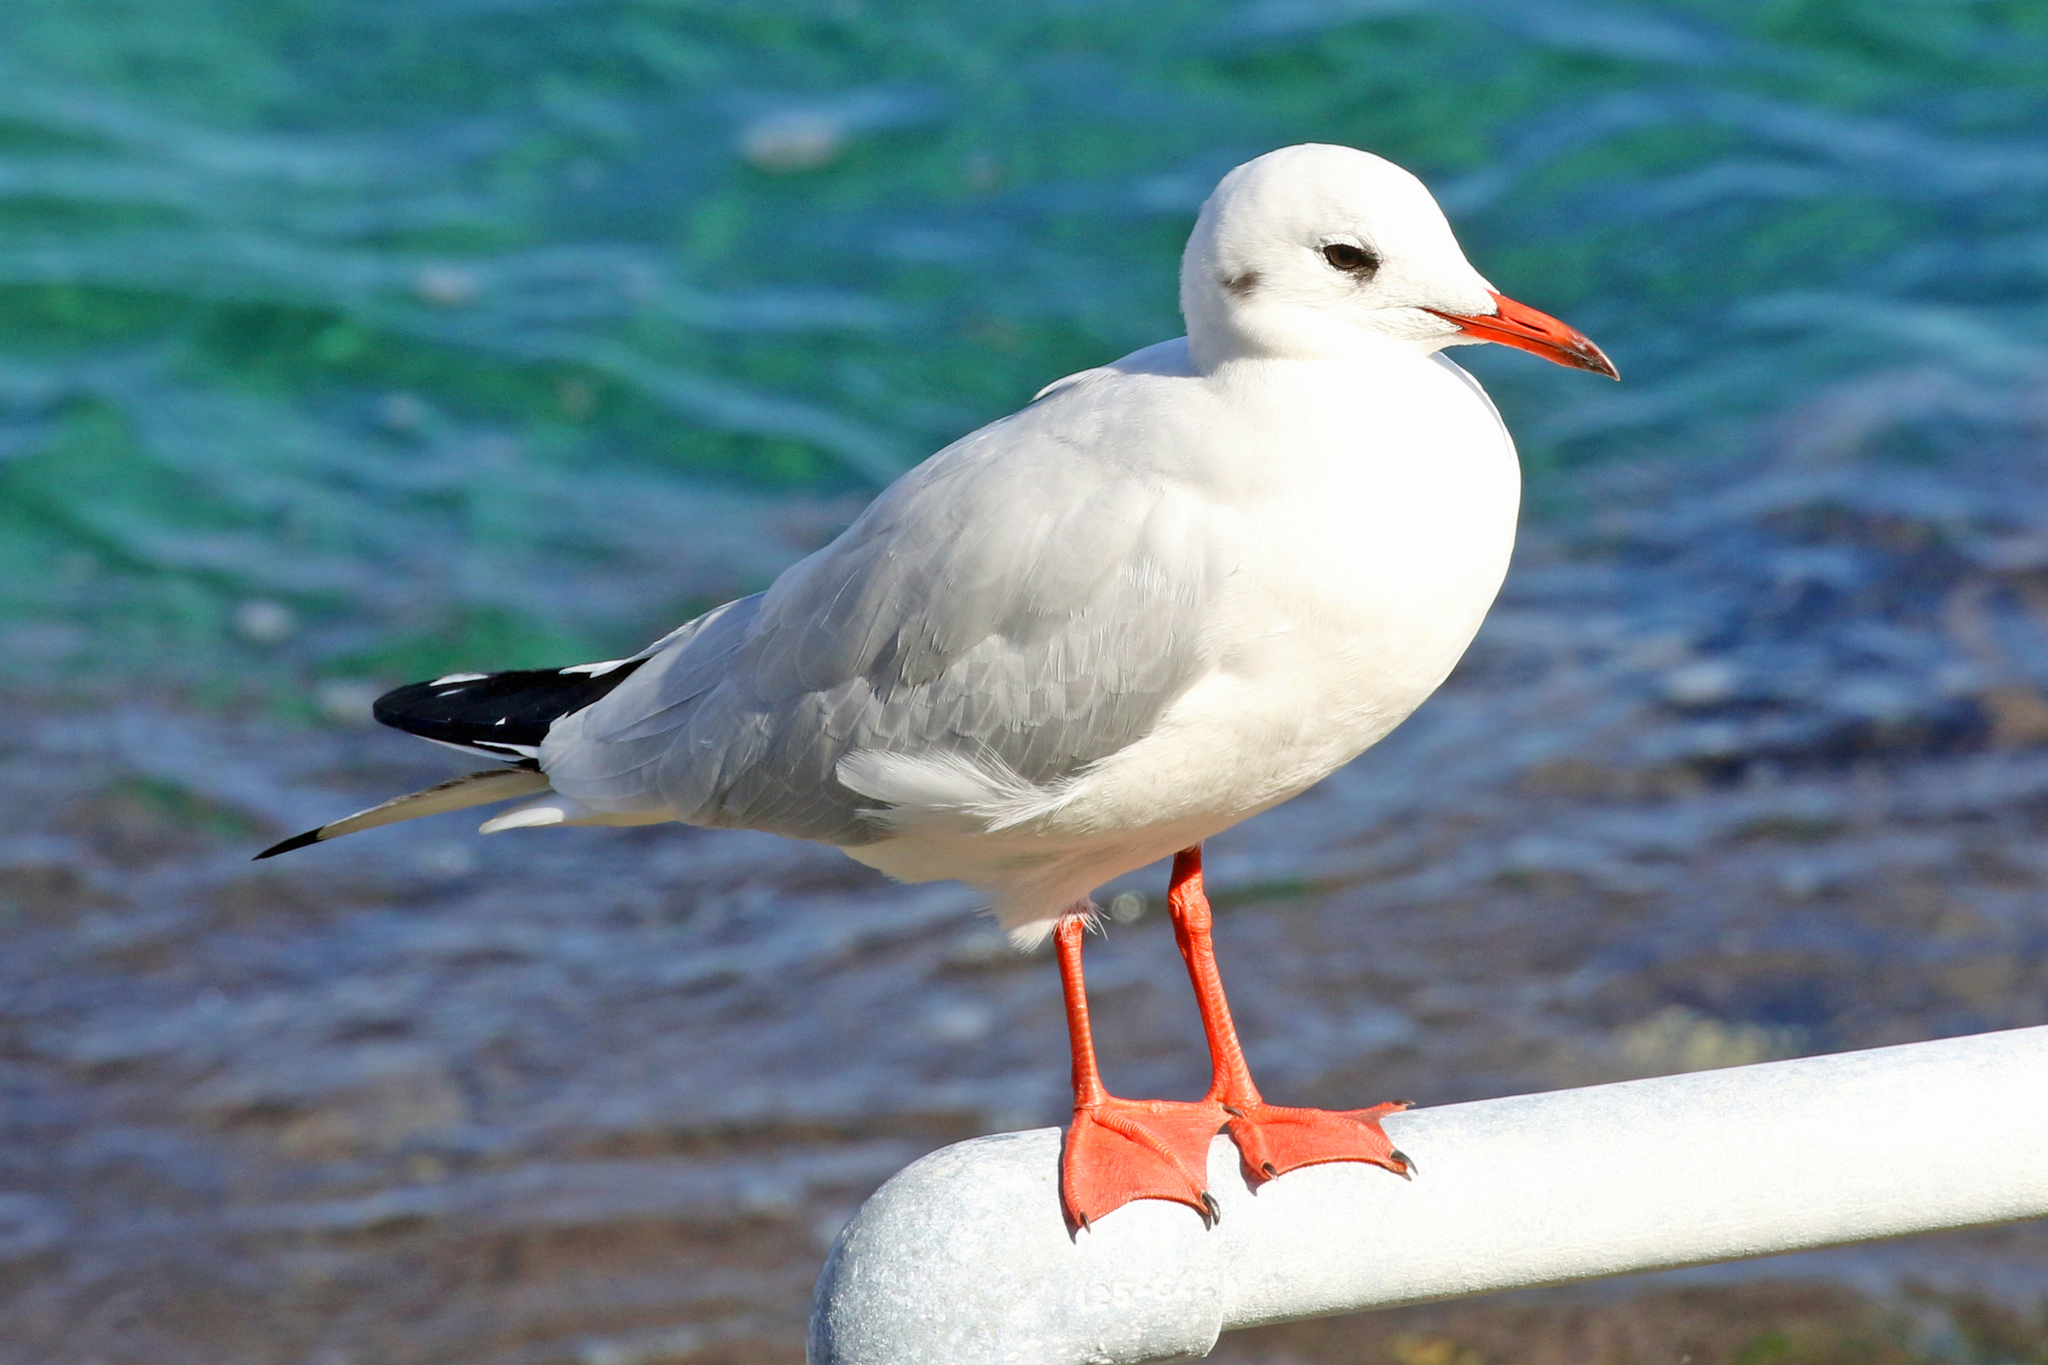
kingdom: Animalia
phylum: Chordata
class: Aves
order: Charadriiformes
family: Laridae
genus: Chroicocephalus
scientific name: Chroicocephalus ridibundus
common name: Black-headed gull
